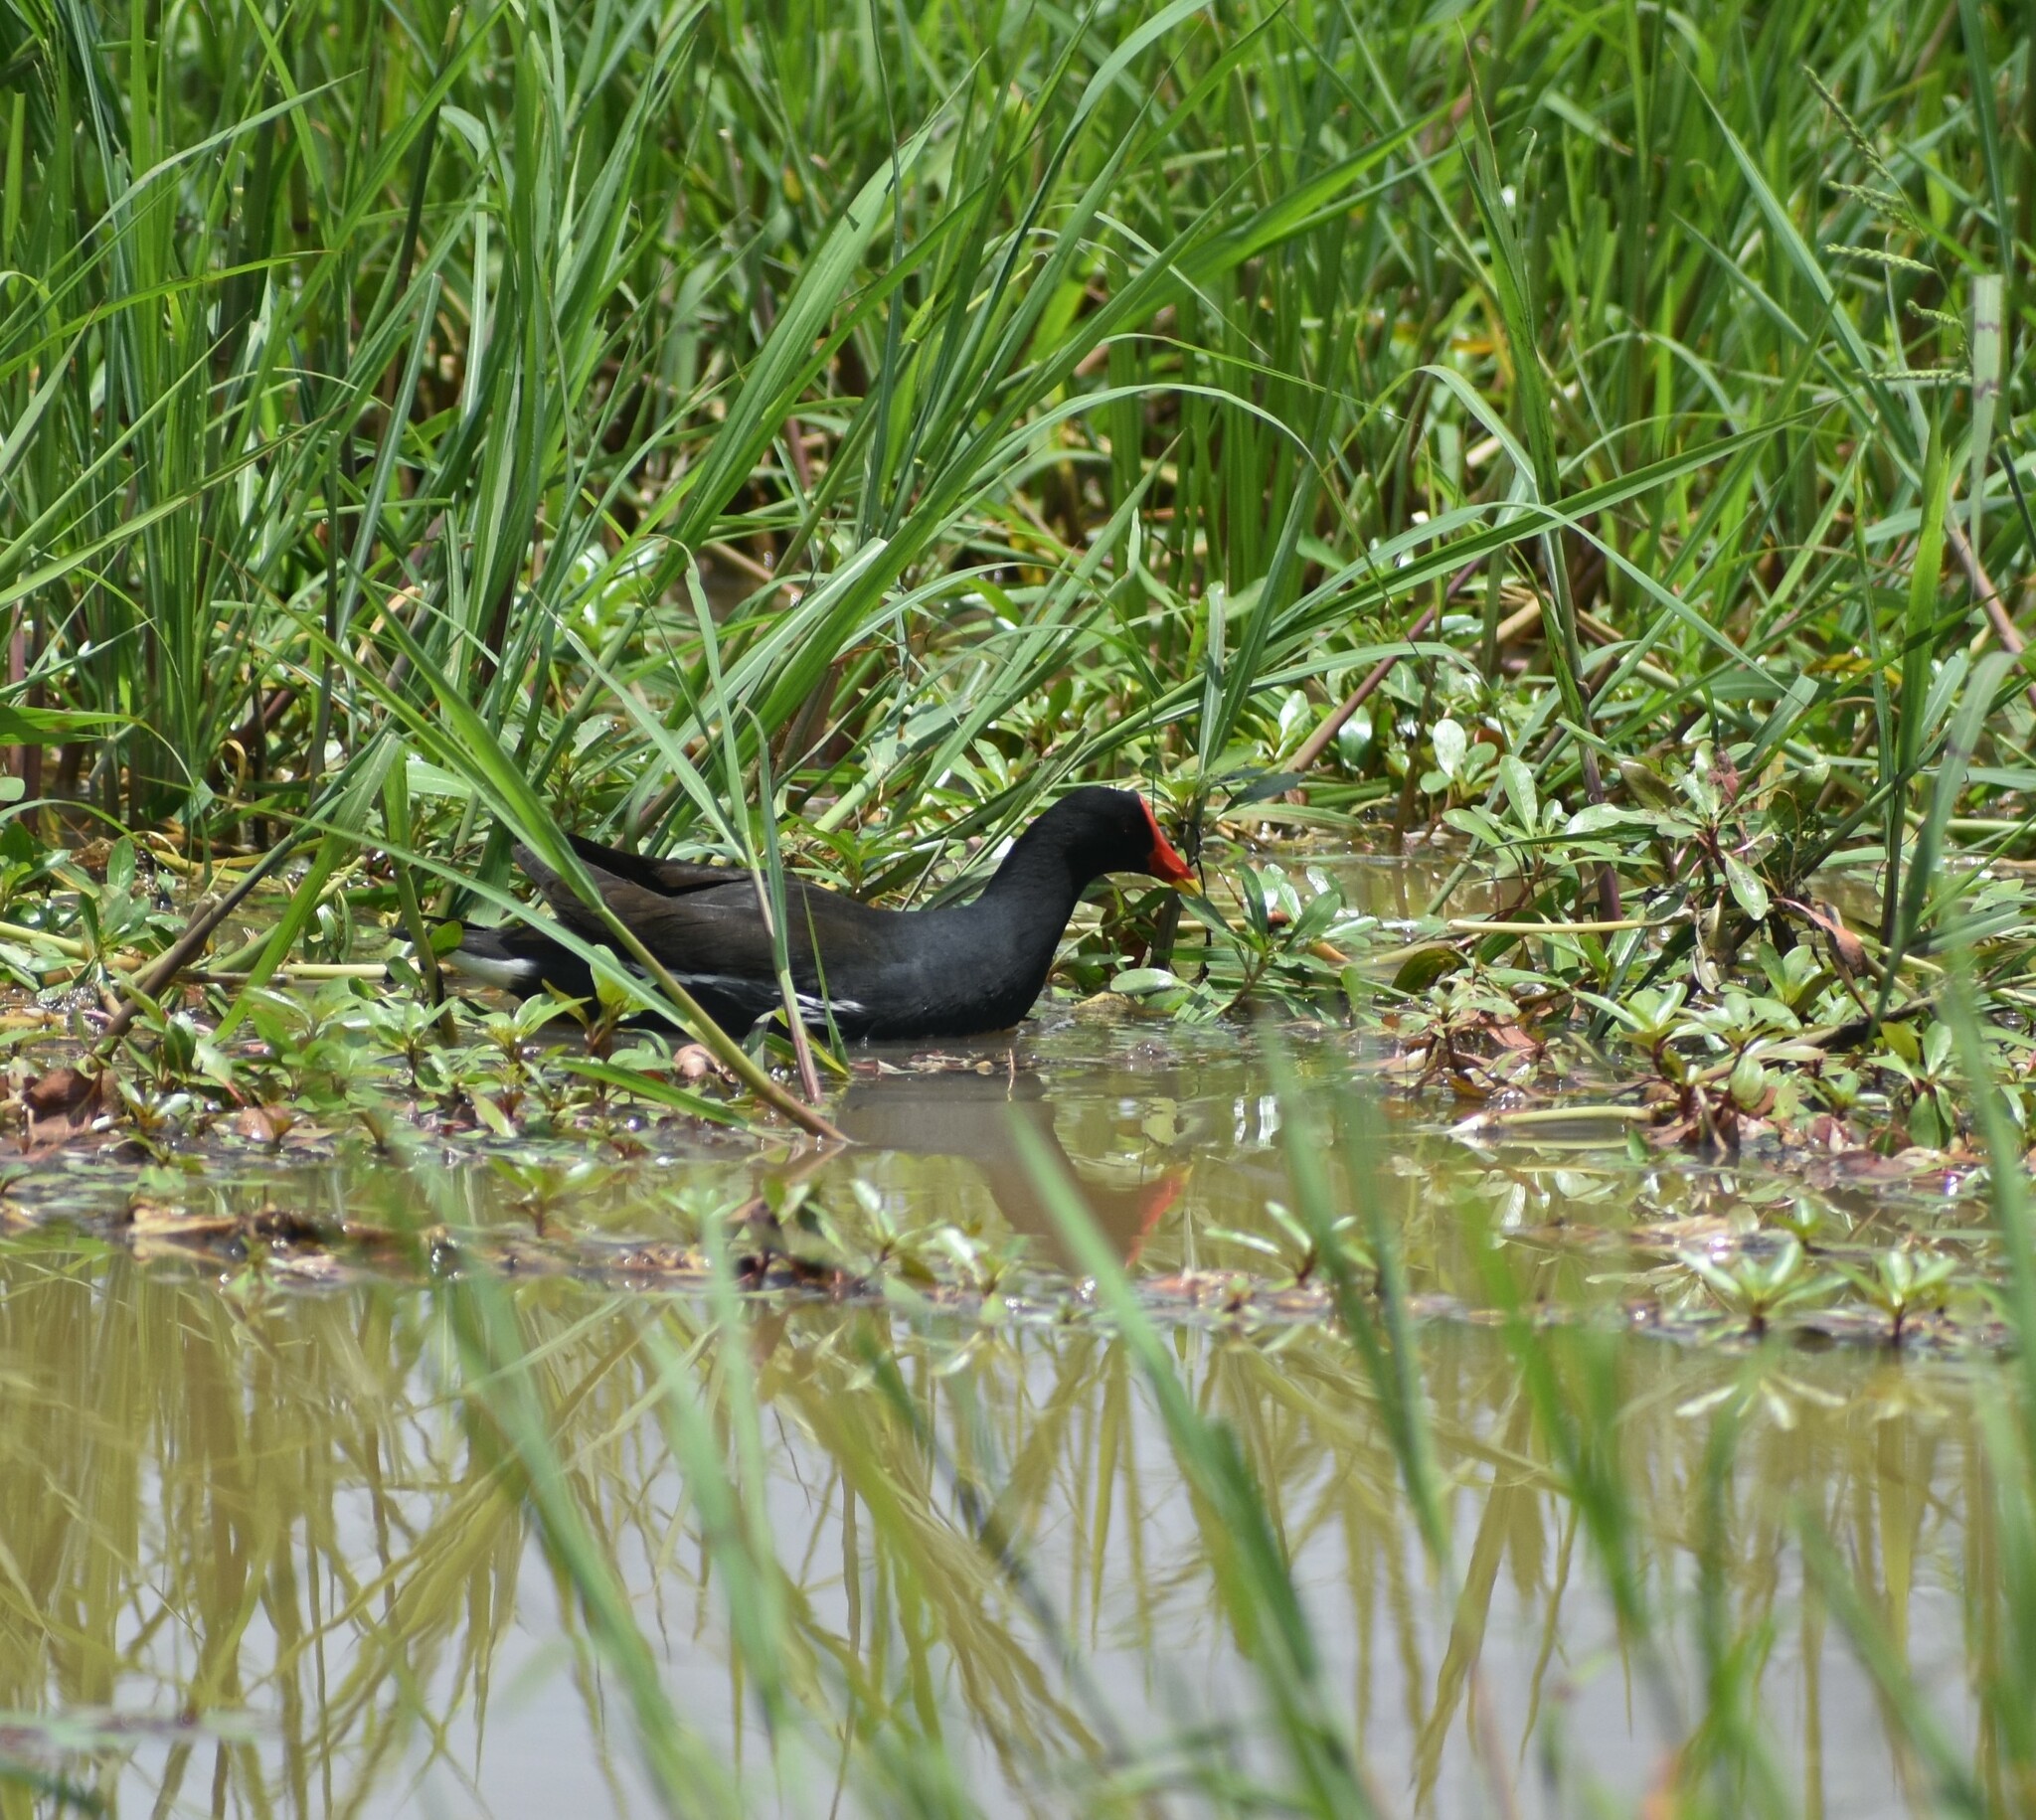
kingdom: Animalia
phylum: Chordata
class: Aves
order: Gruiformes
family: Rallidae
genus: Gallinula
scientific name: Gallinula chloropus
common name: Common moorhen
